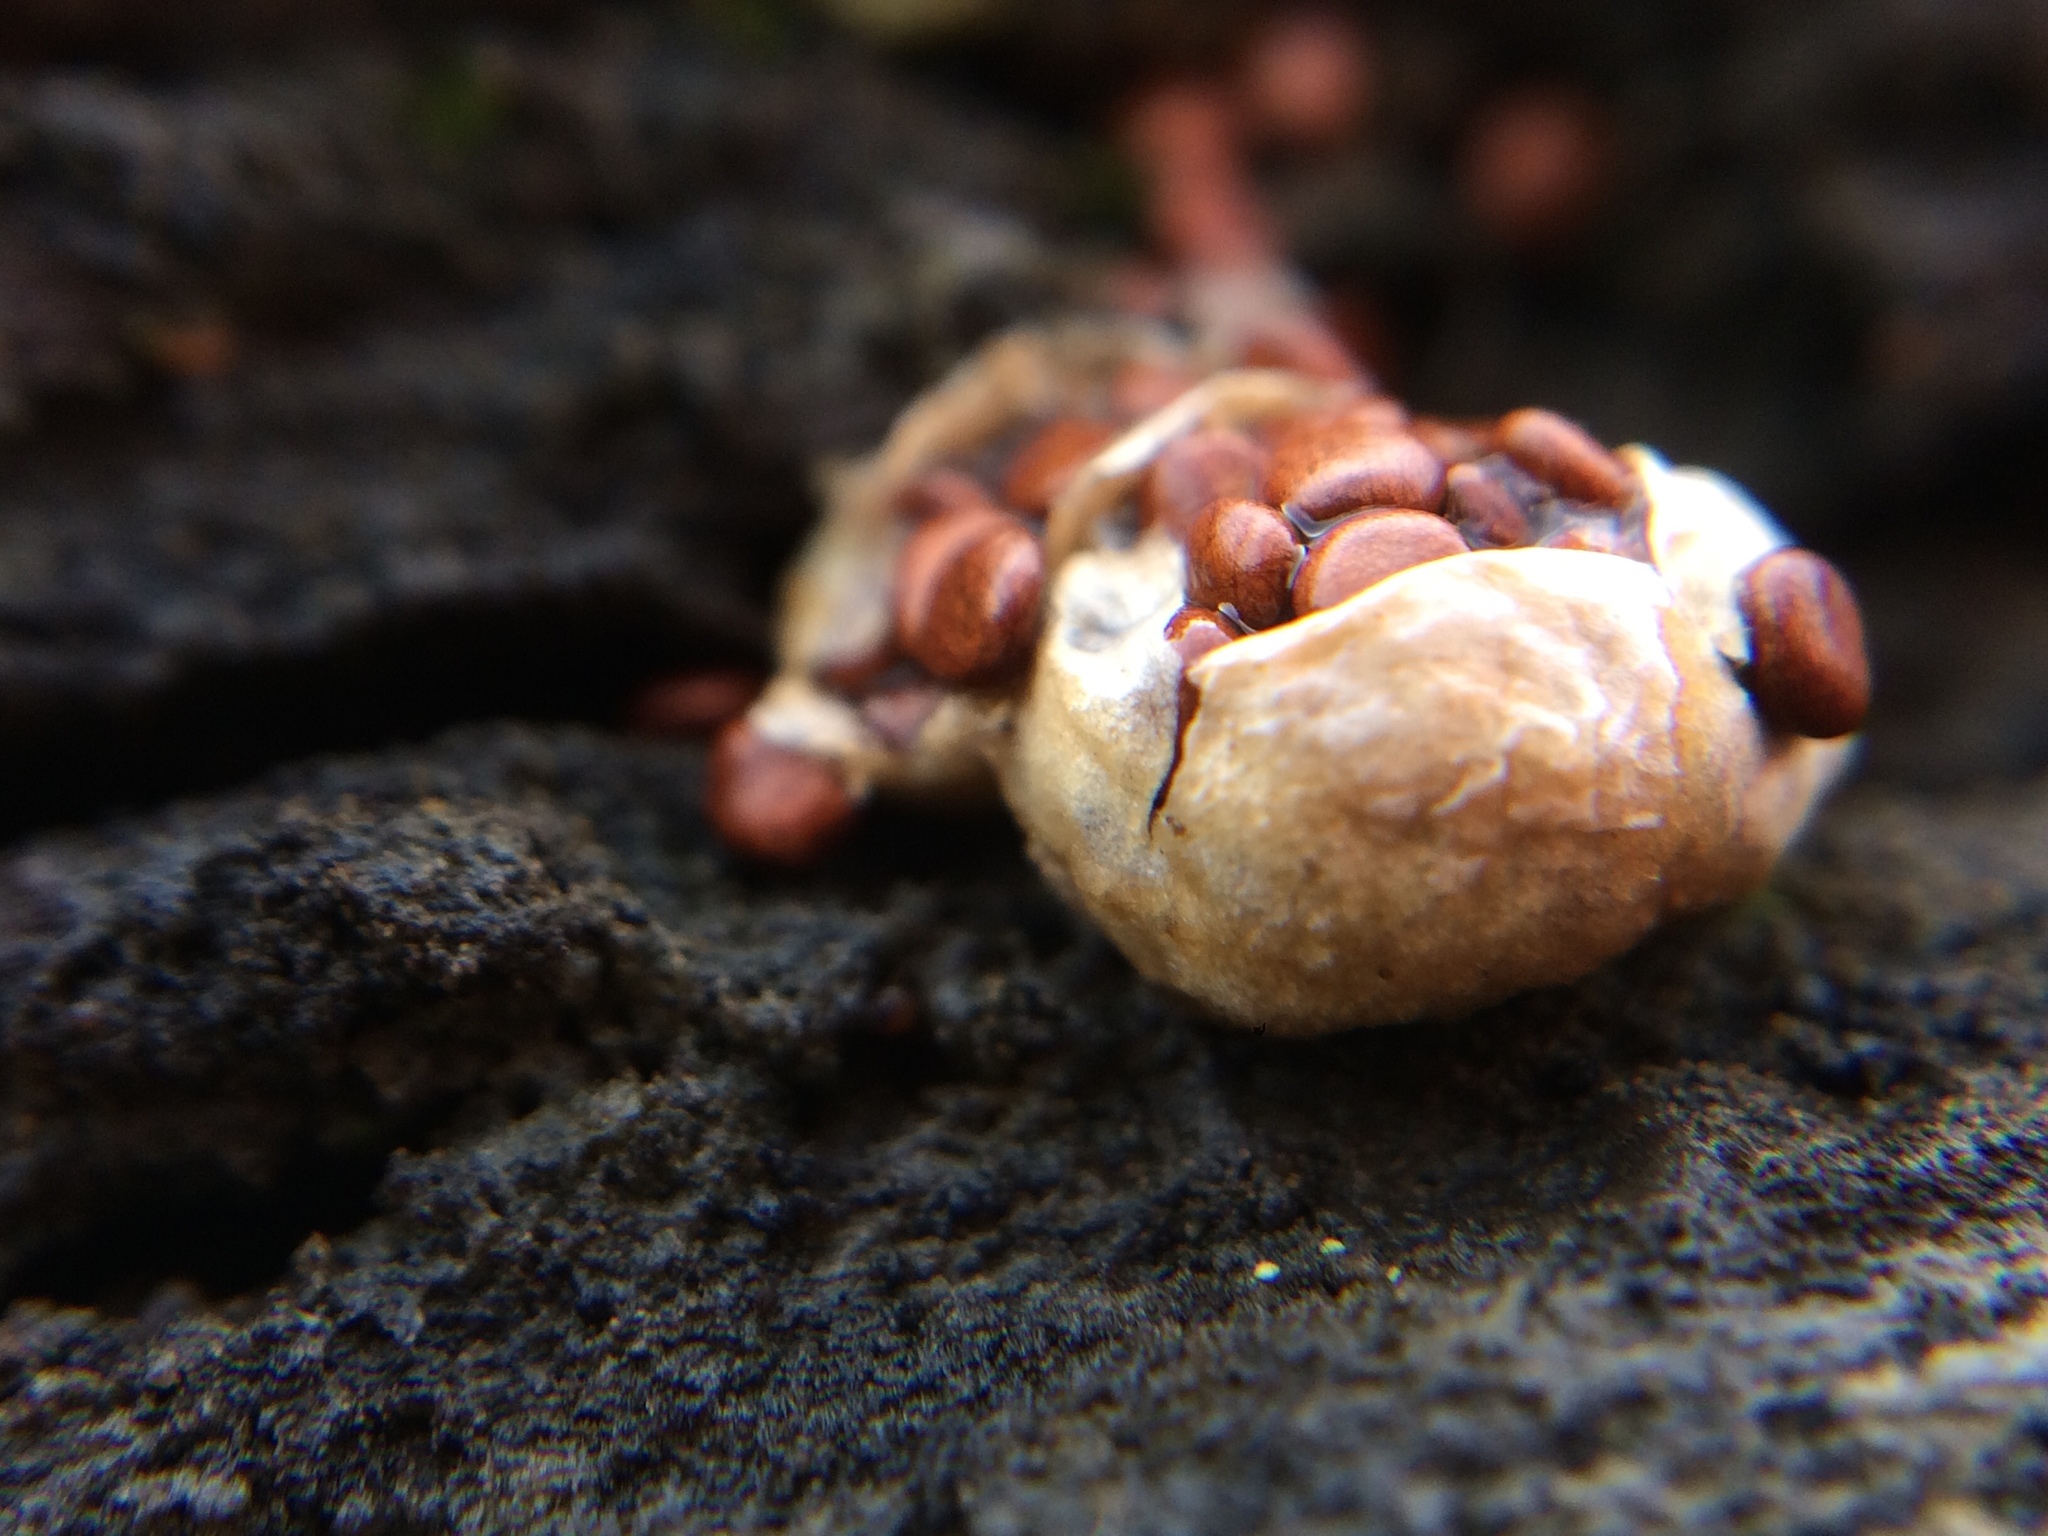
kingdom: Fungi
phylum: Basidiomycota
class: Agaricomycetes
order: Agaricales
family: Agaricaceae
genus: Nidularia
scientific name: Nidularia deformis
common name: Pea-shaped bird's nest
